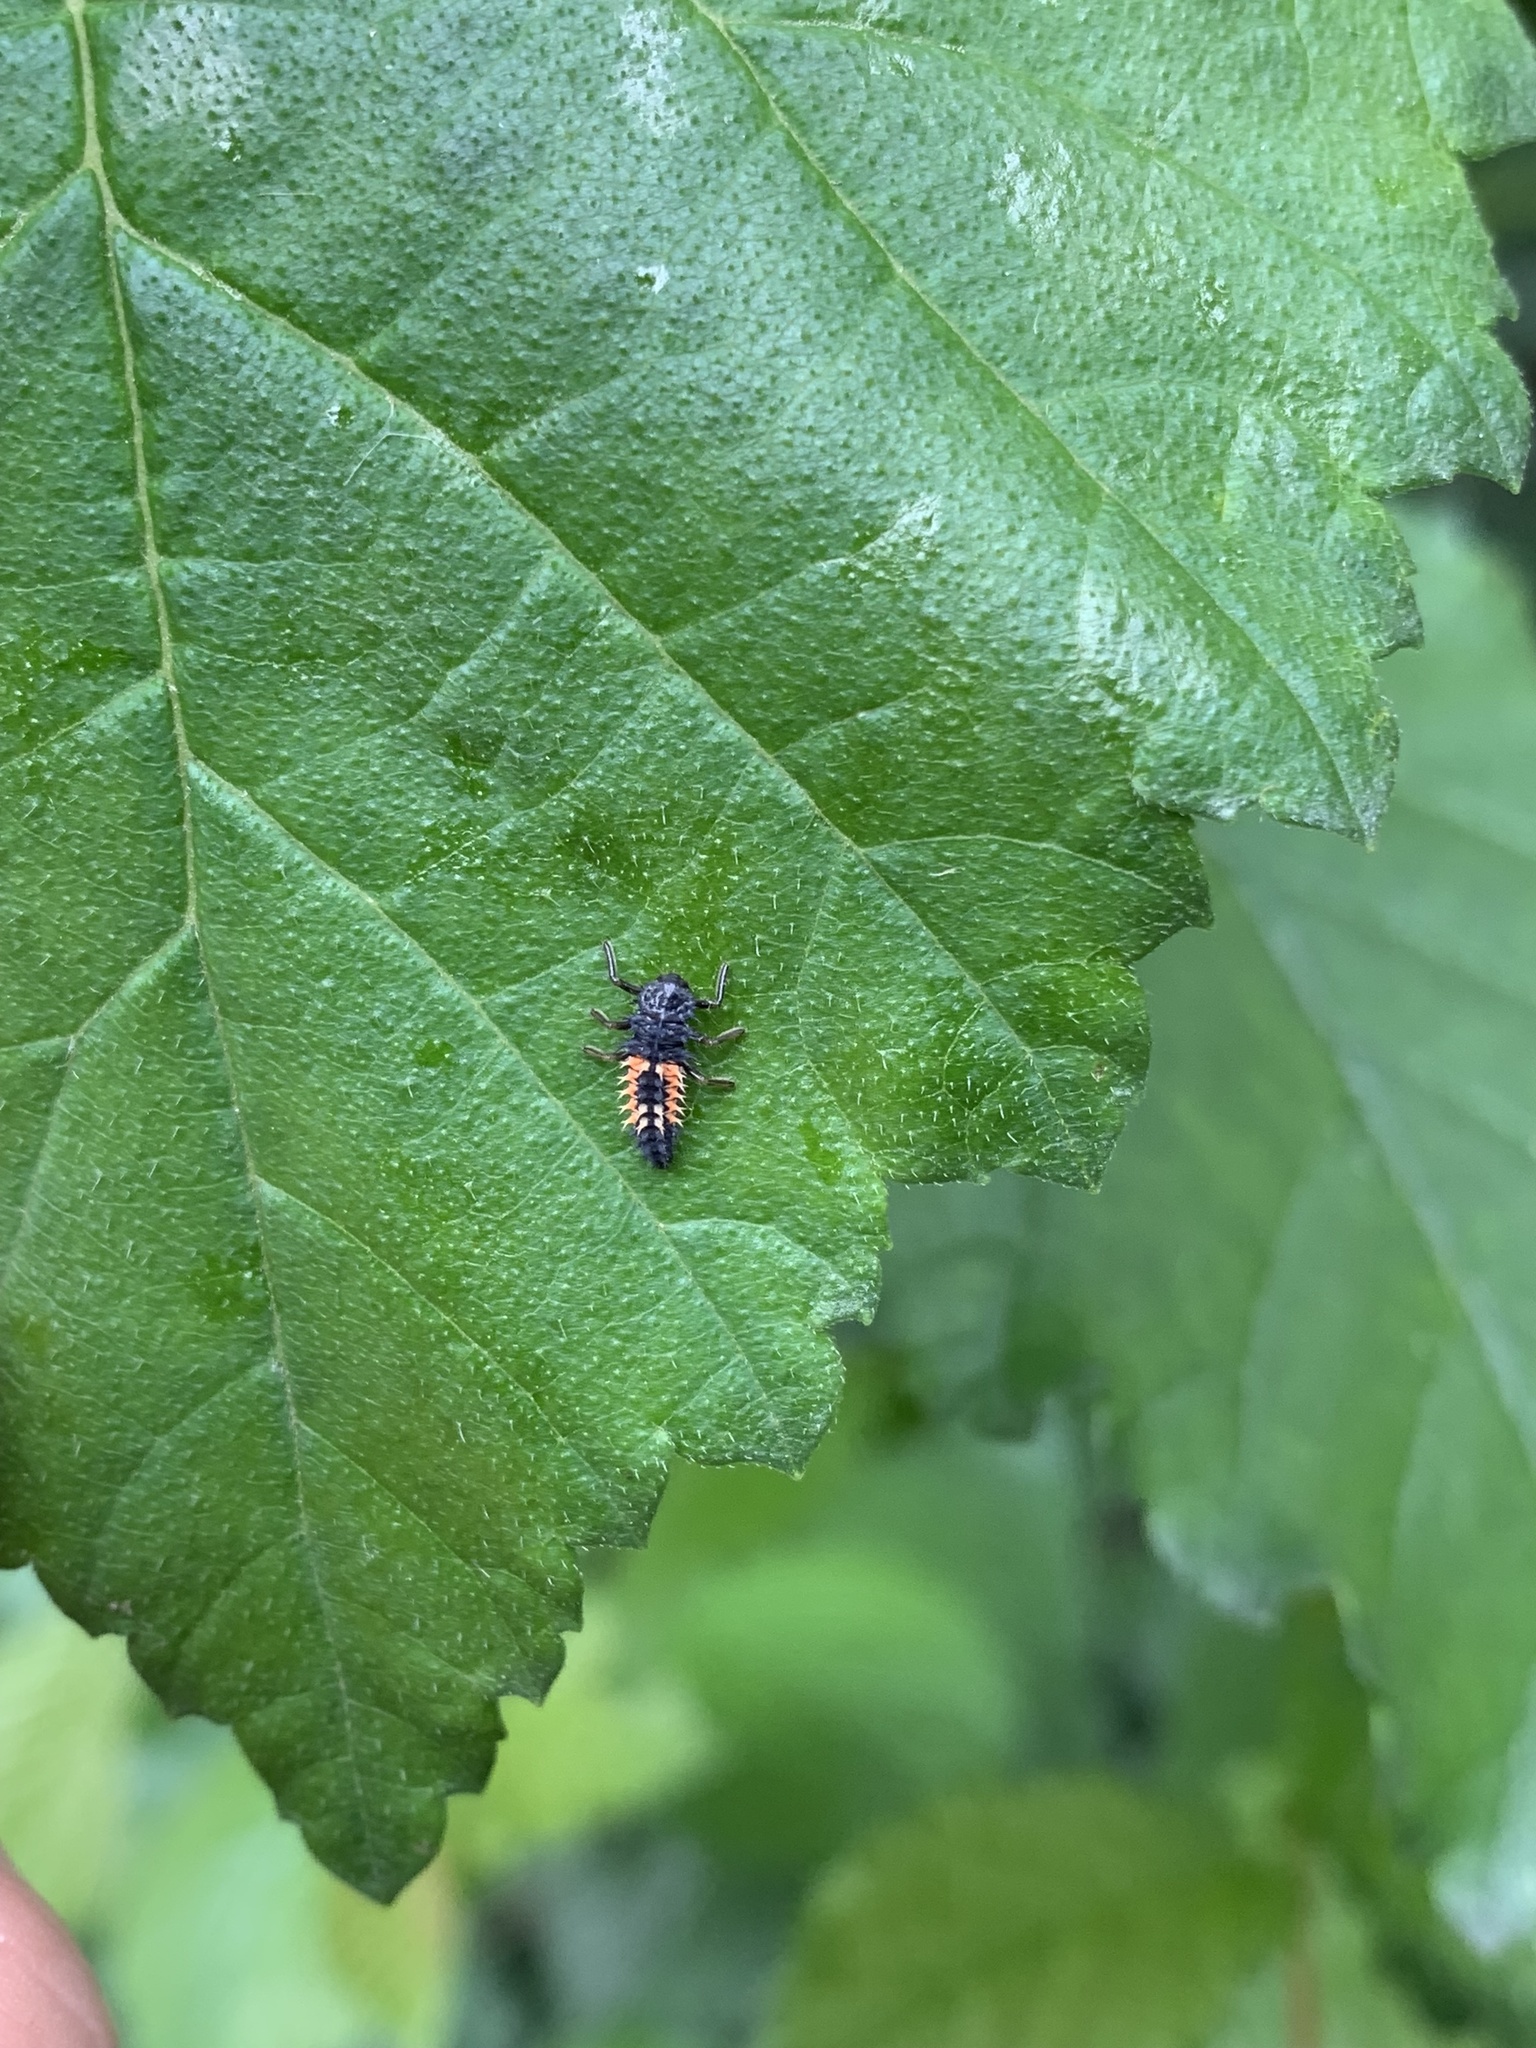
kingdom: Animalia
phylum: Arthropoda
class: Insecta
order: Coleoptera
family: Coccinellidae
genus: Harmonia
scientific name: Harmonia axyridis
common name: Harlequin ladybird
